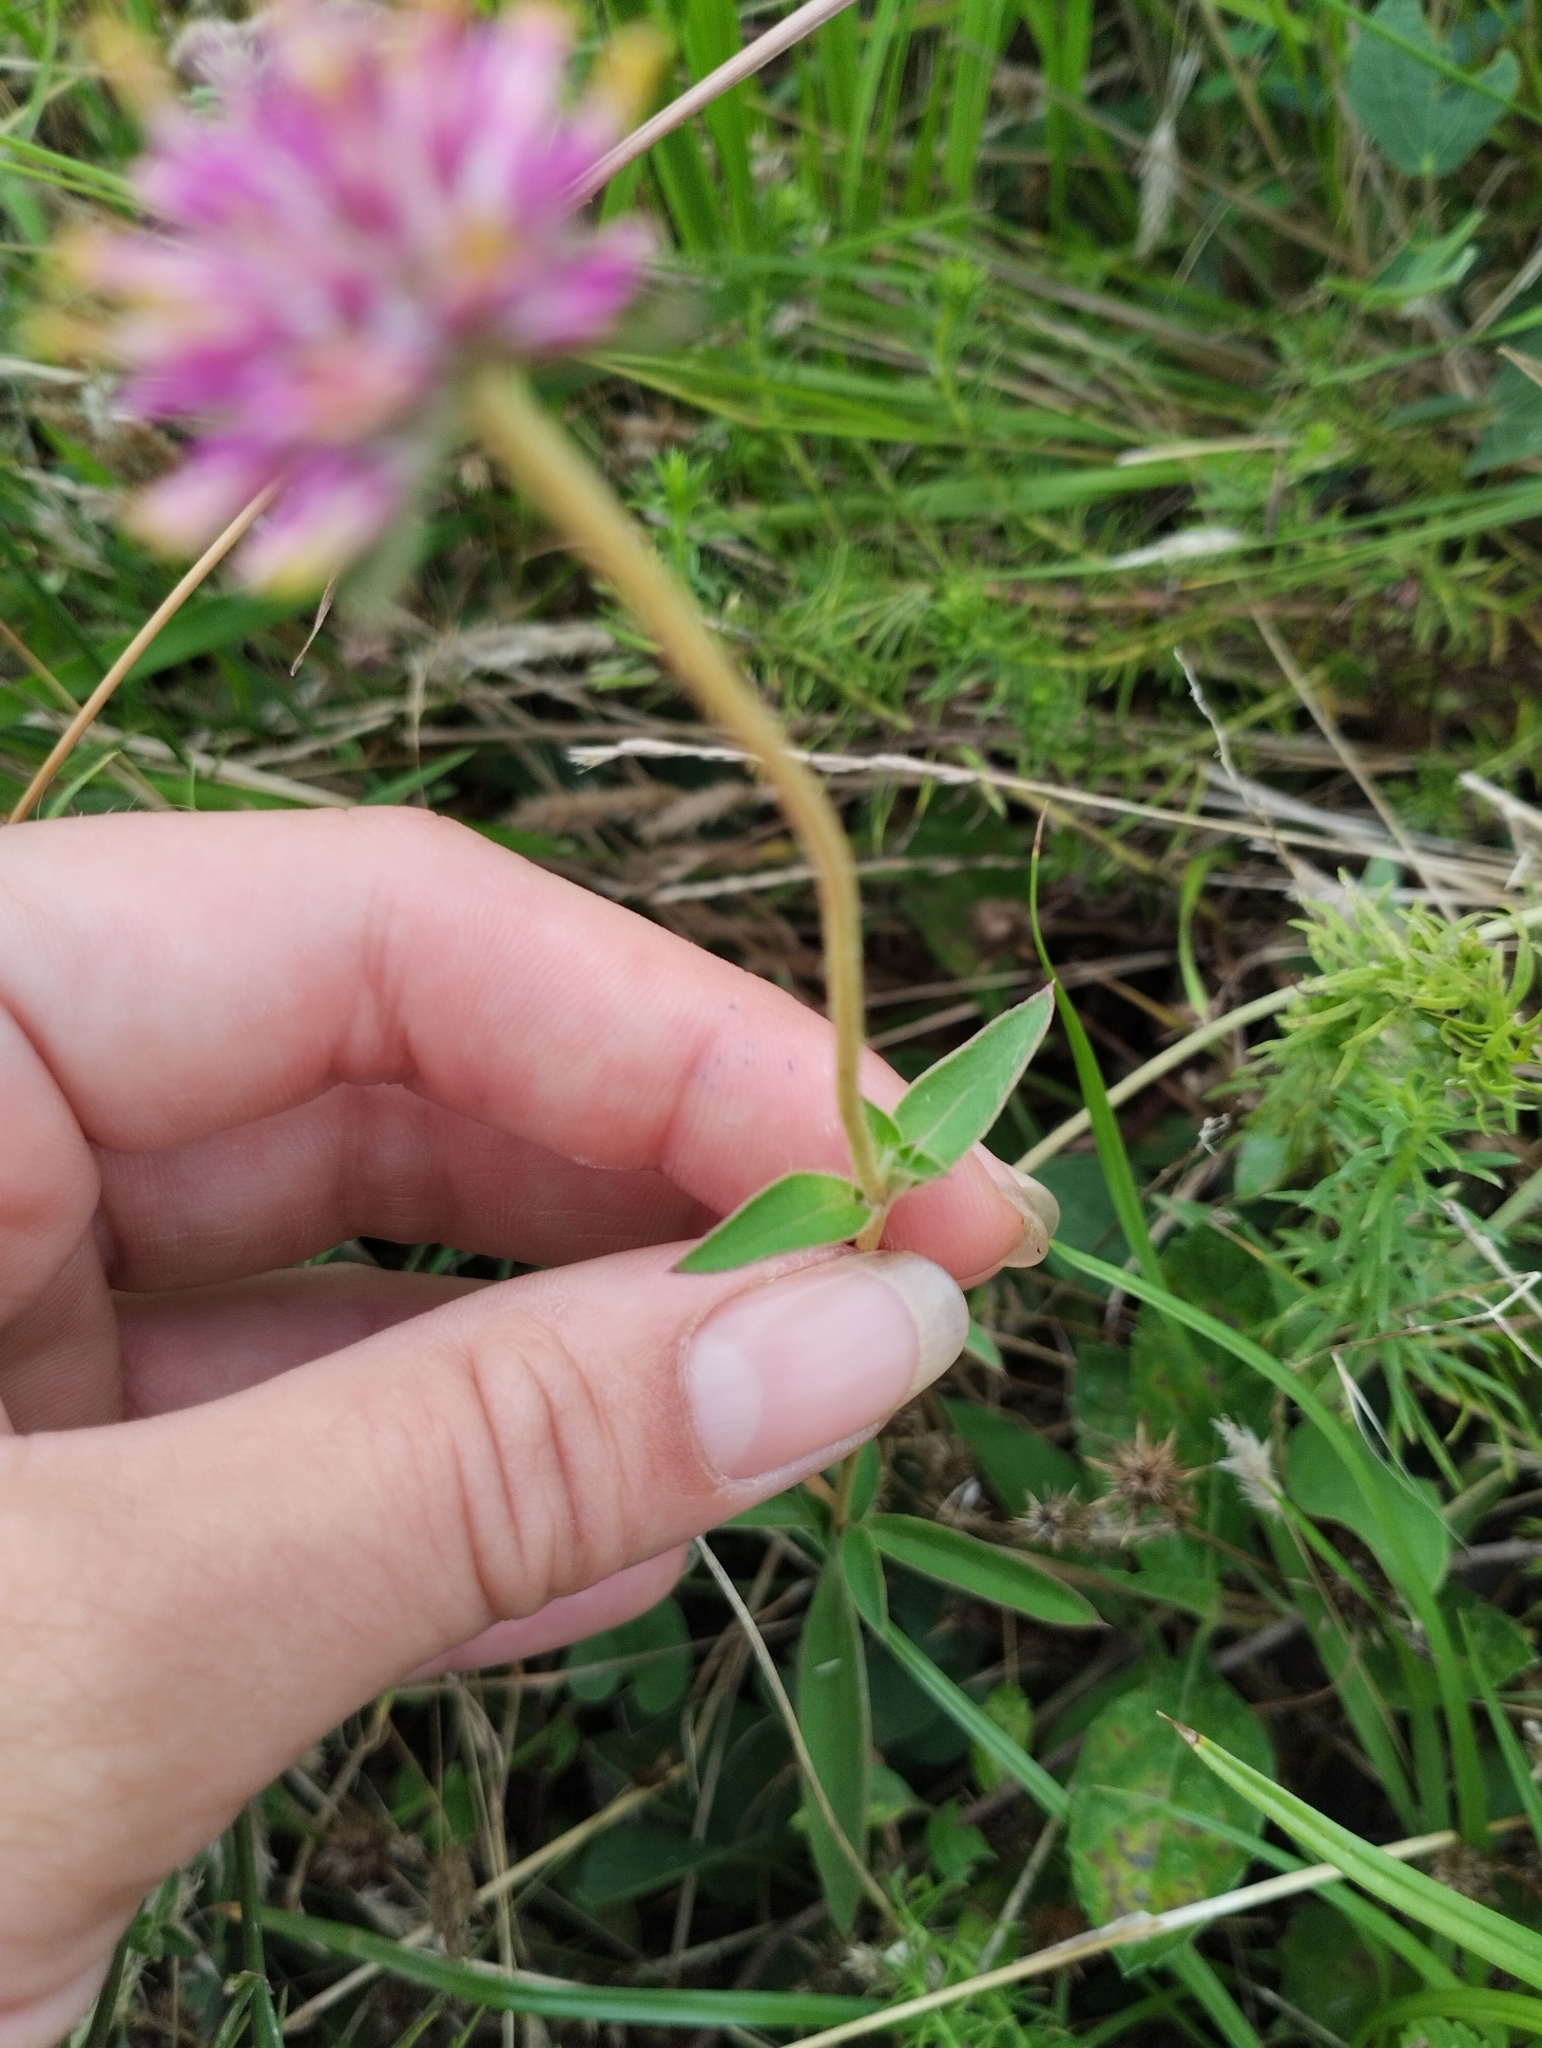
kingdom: Plantae
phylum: Tracheophyta
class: Magnoliopsida
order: Caryophyllales
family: Amaranthaceae
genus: Gomphrena
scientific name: Gomphrena pulchella
